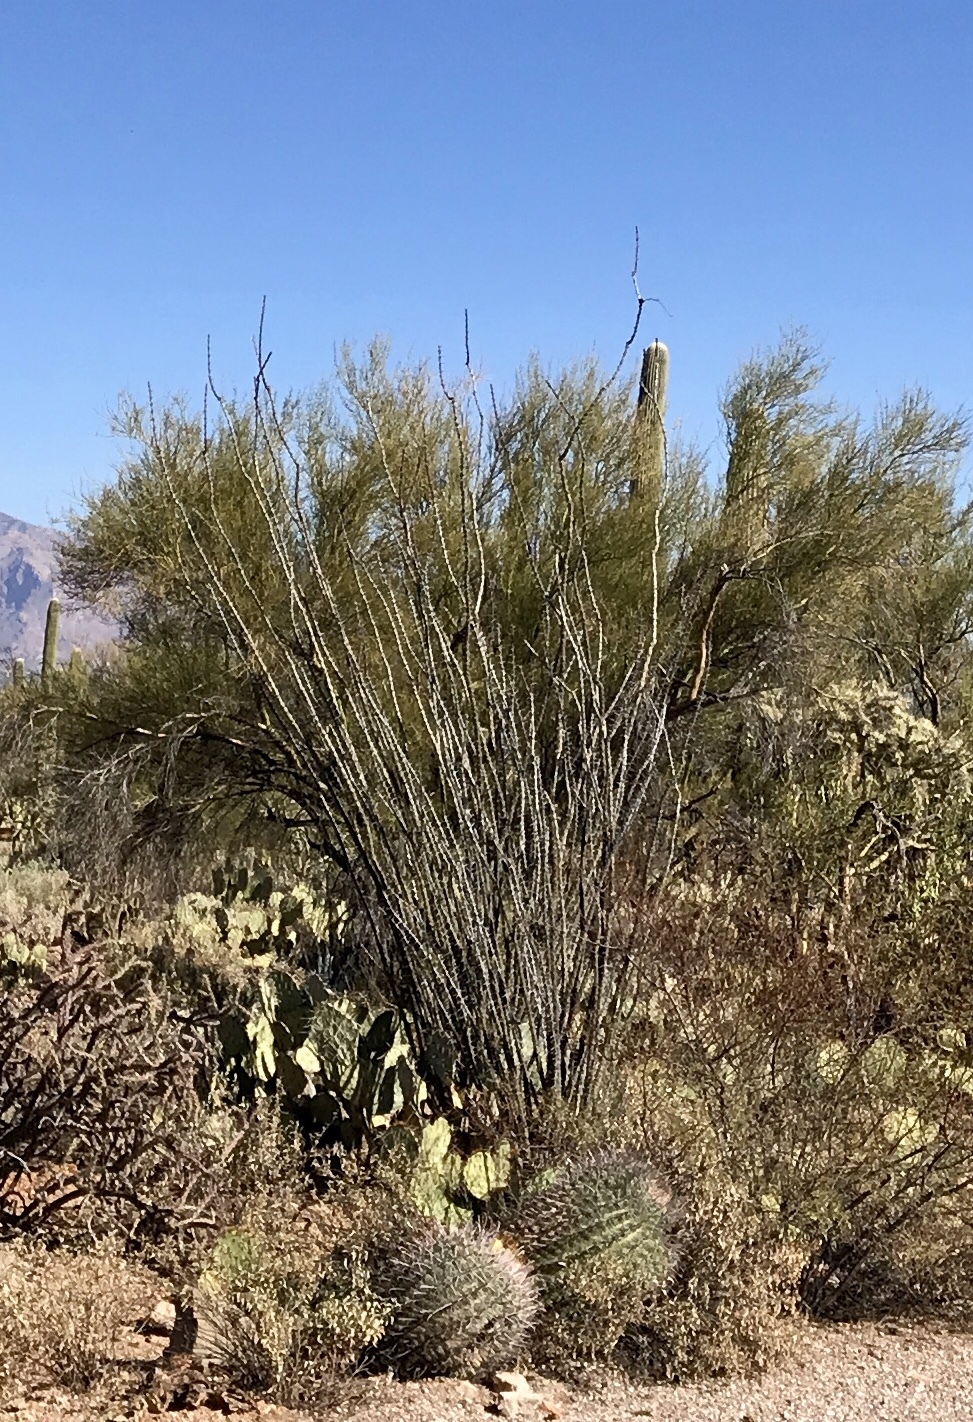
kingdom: Plantae
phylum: Tracheophyta
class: Magnoliopsida
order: Ericales
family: Fouquieriaceae
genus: Fouquieria
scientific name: Fouquieria splendens
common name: Vine-cactus
